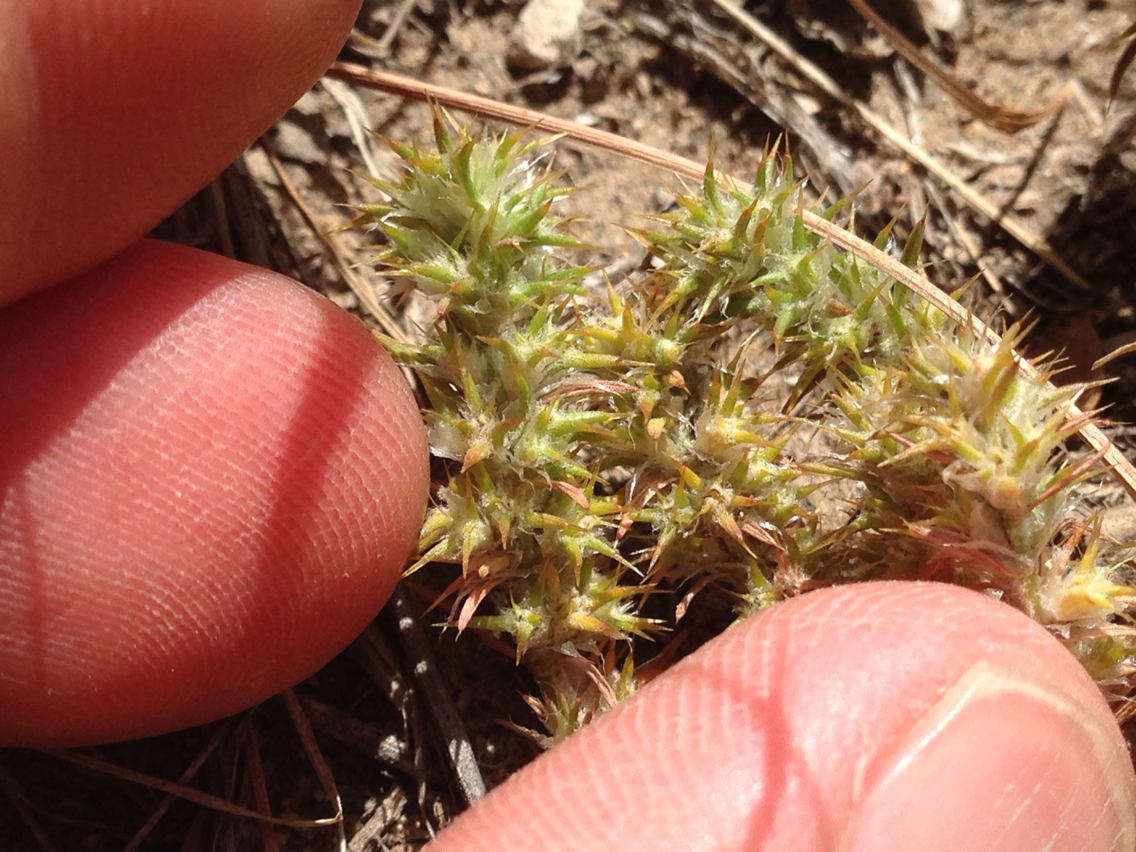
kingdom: Plantae
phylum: Tracheophyta
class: Magnoliopsida
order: Caryophyllales
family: Caryophyllaceae
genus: Cardionema
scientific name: Cardionema ramosissima
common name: Sandcarpet
